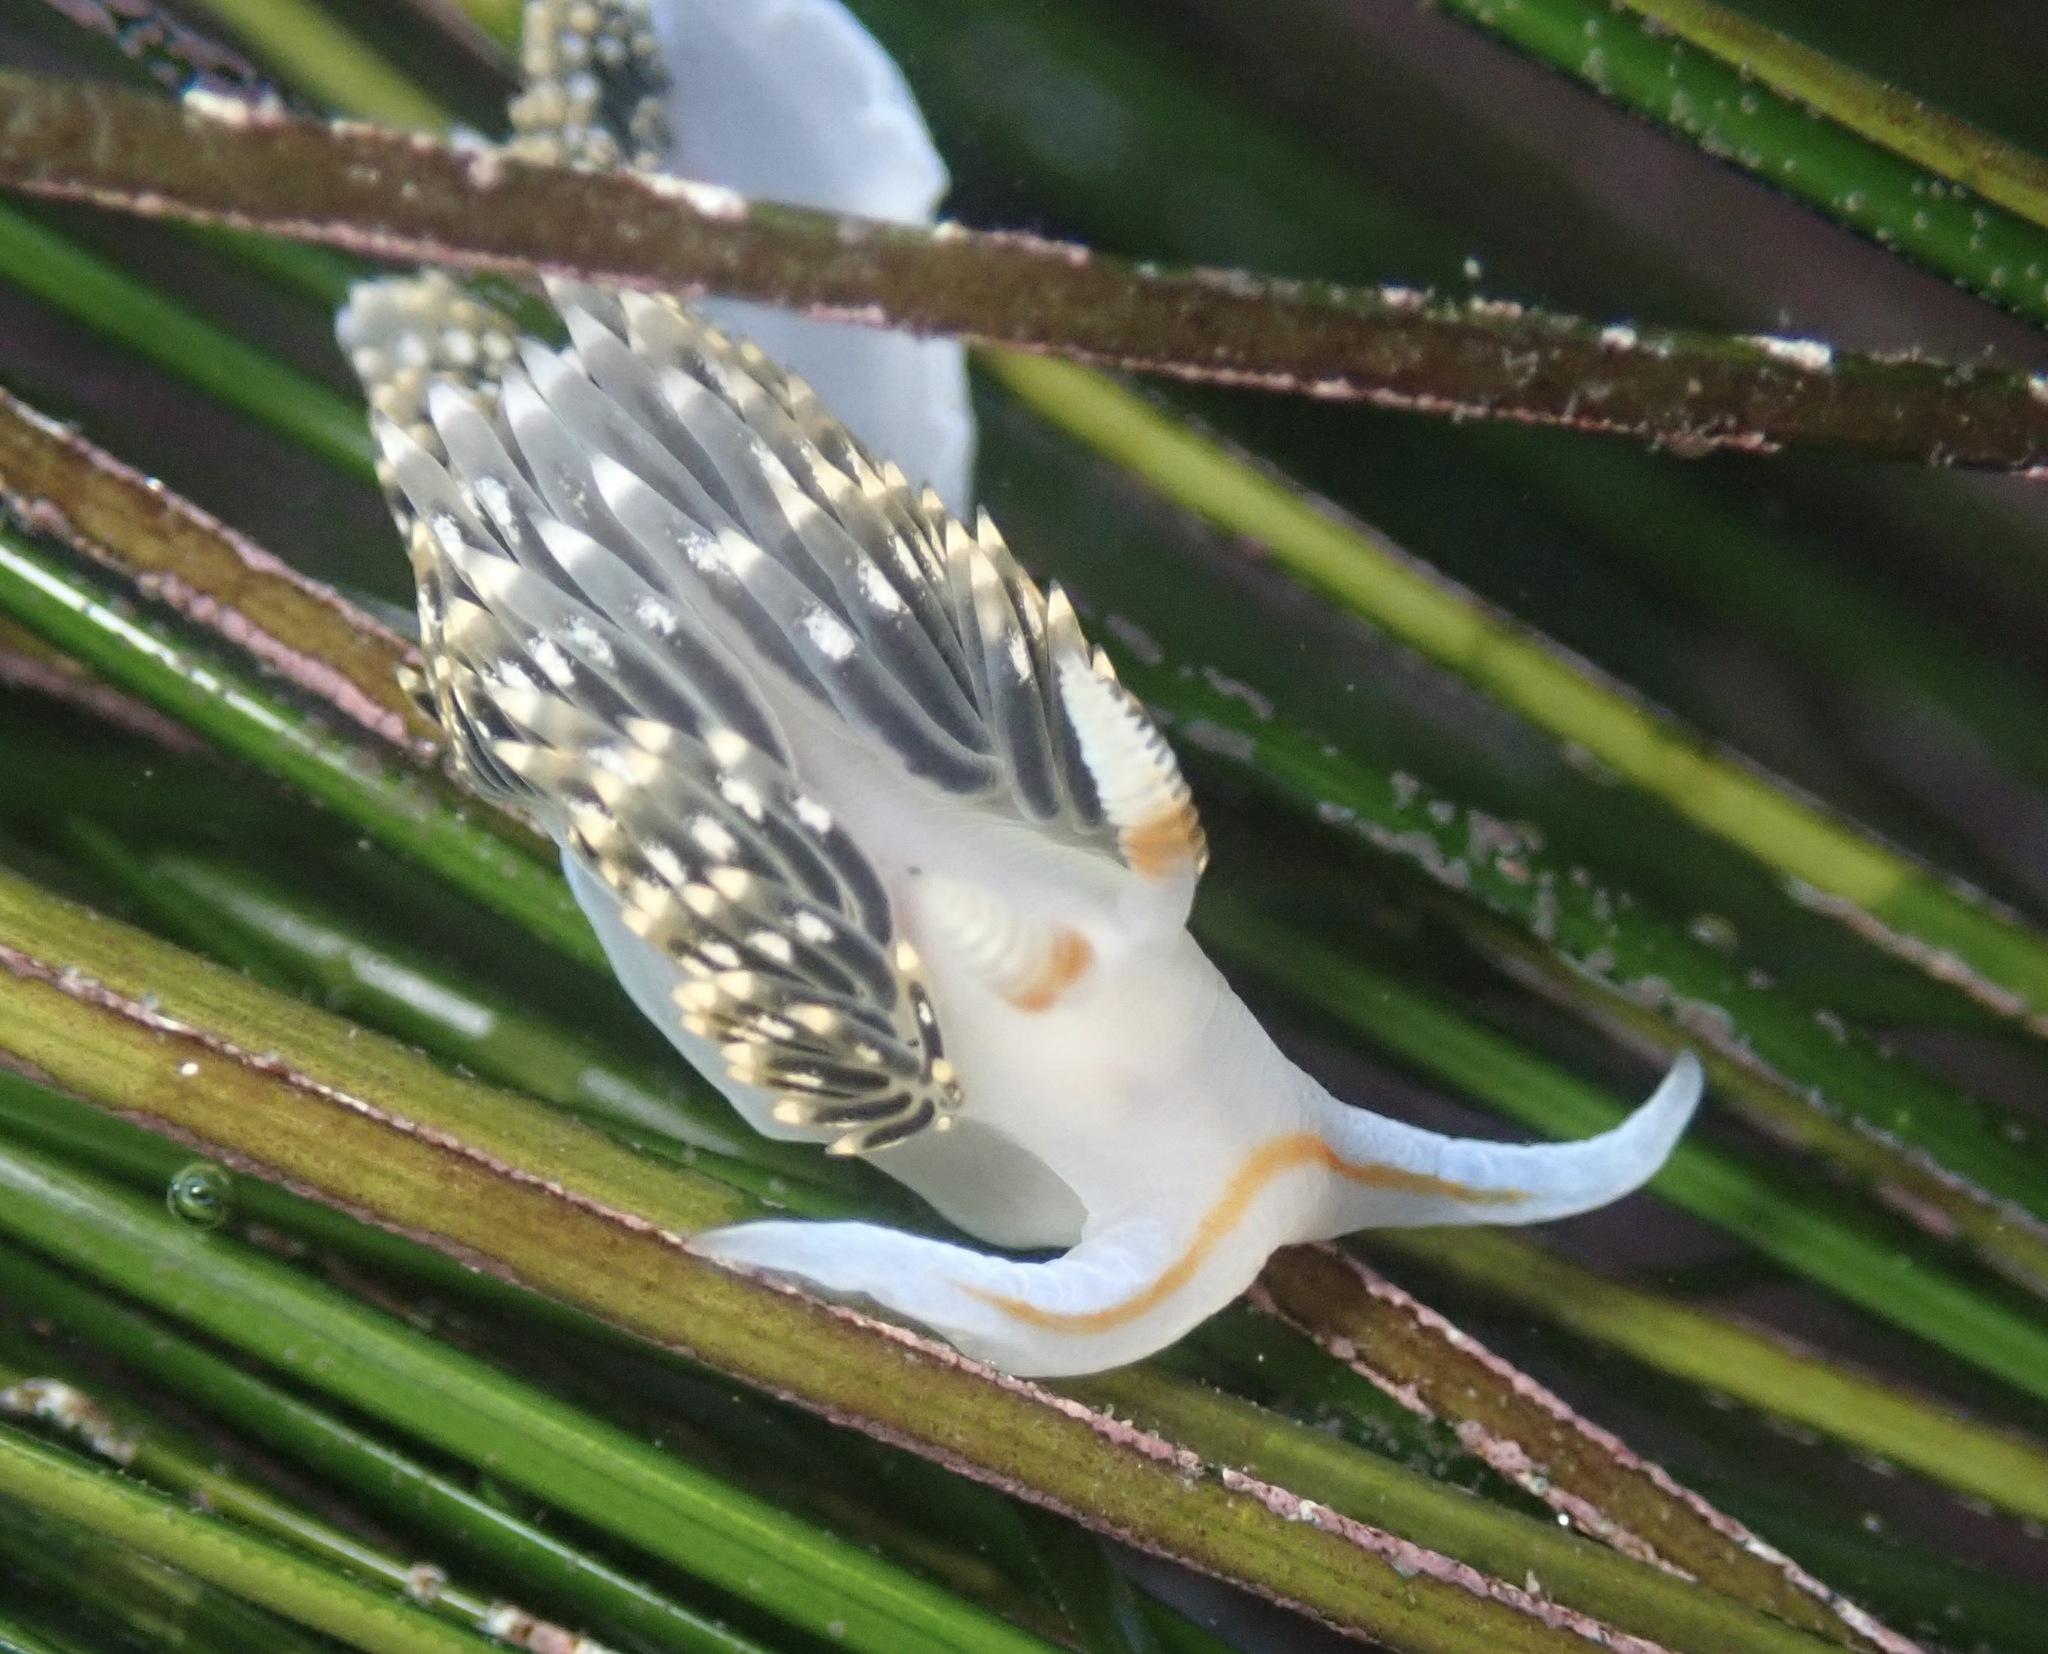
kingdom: Animalia
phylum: Mollusca
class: Gastropoda
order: Nudibranchia
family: Facelinidae
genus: Phidiana
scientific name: Phidiana hiltoni
